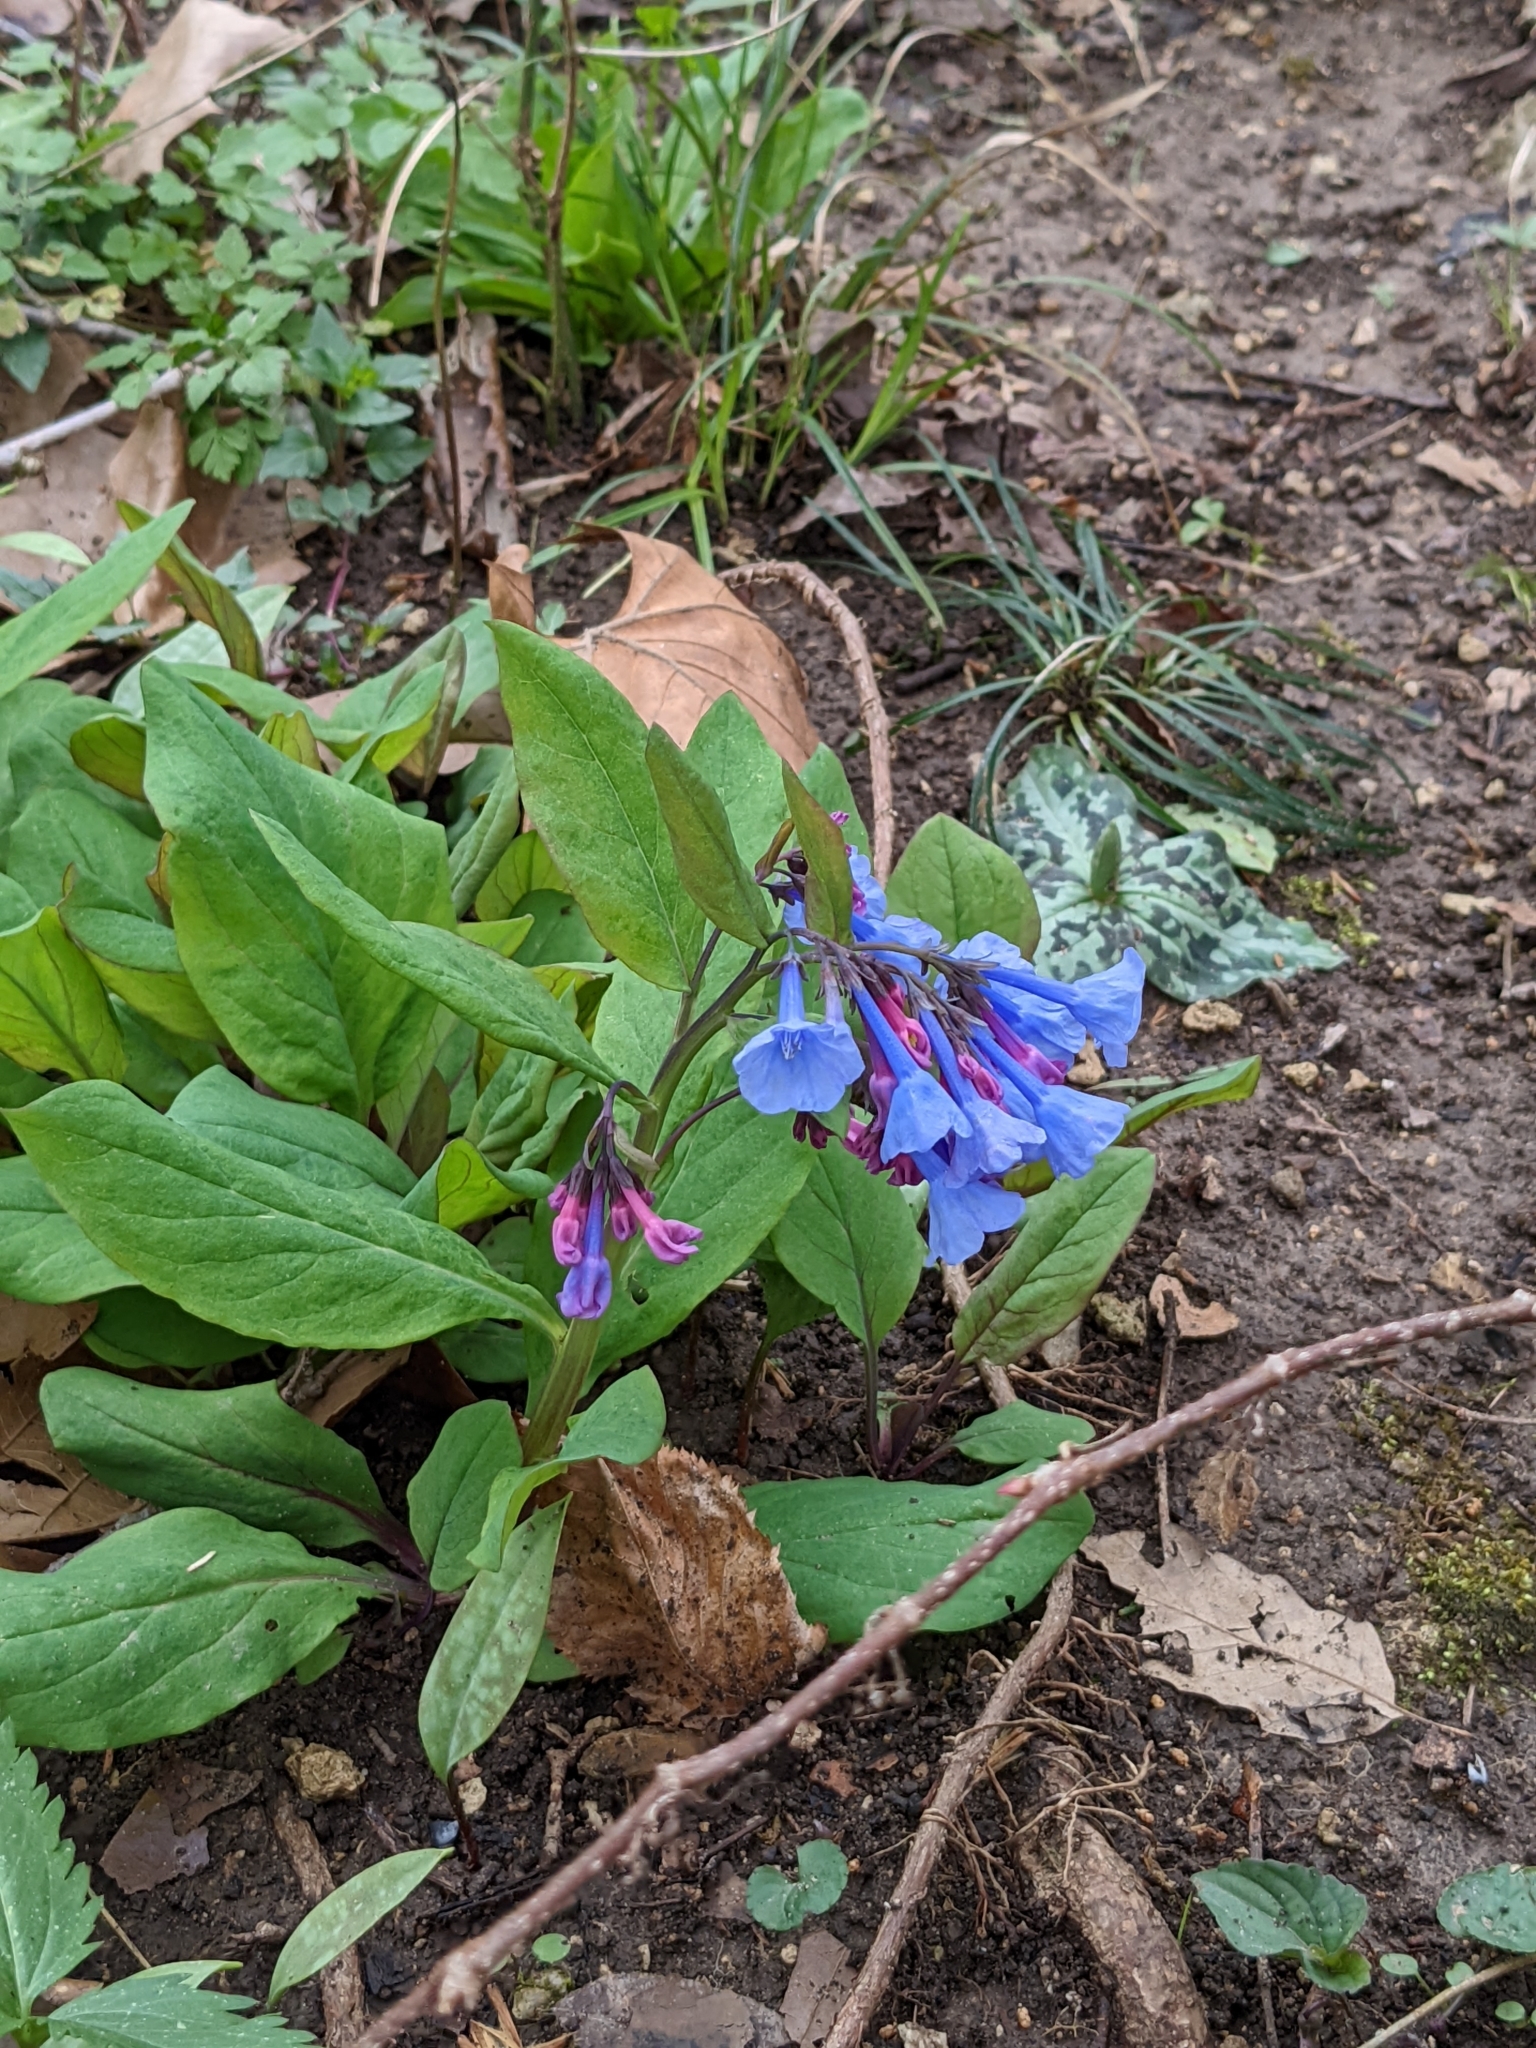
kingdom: Plantae
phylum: Tracheophyta
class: Magnoliopsida
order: Boraginales
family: Boraginaceae
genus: Mertensia
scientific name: Mertensia virginica
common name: Virginia bluebells
